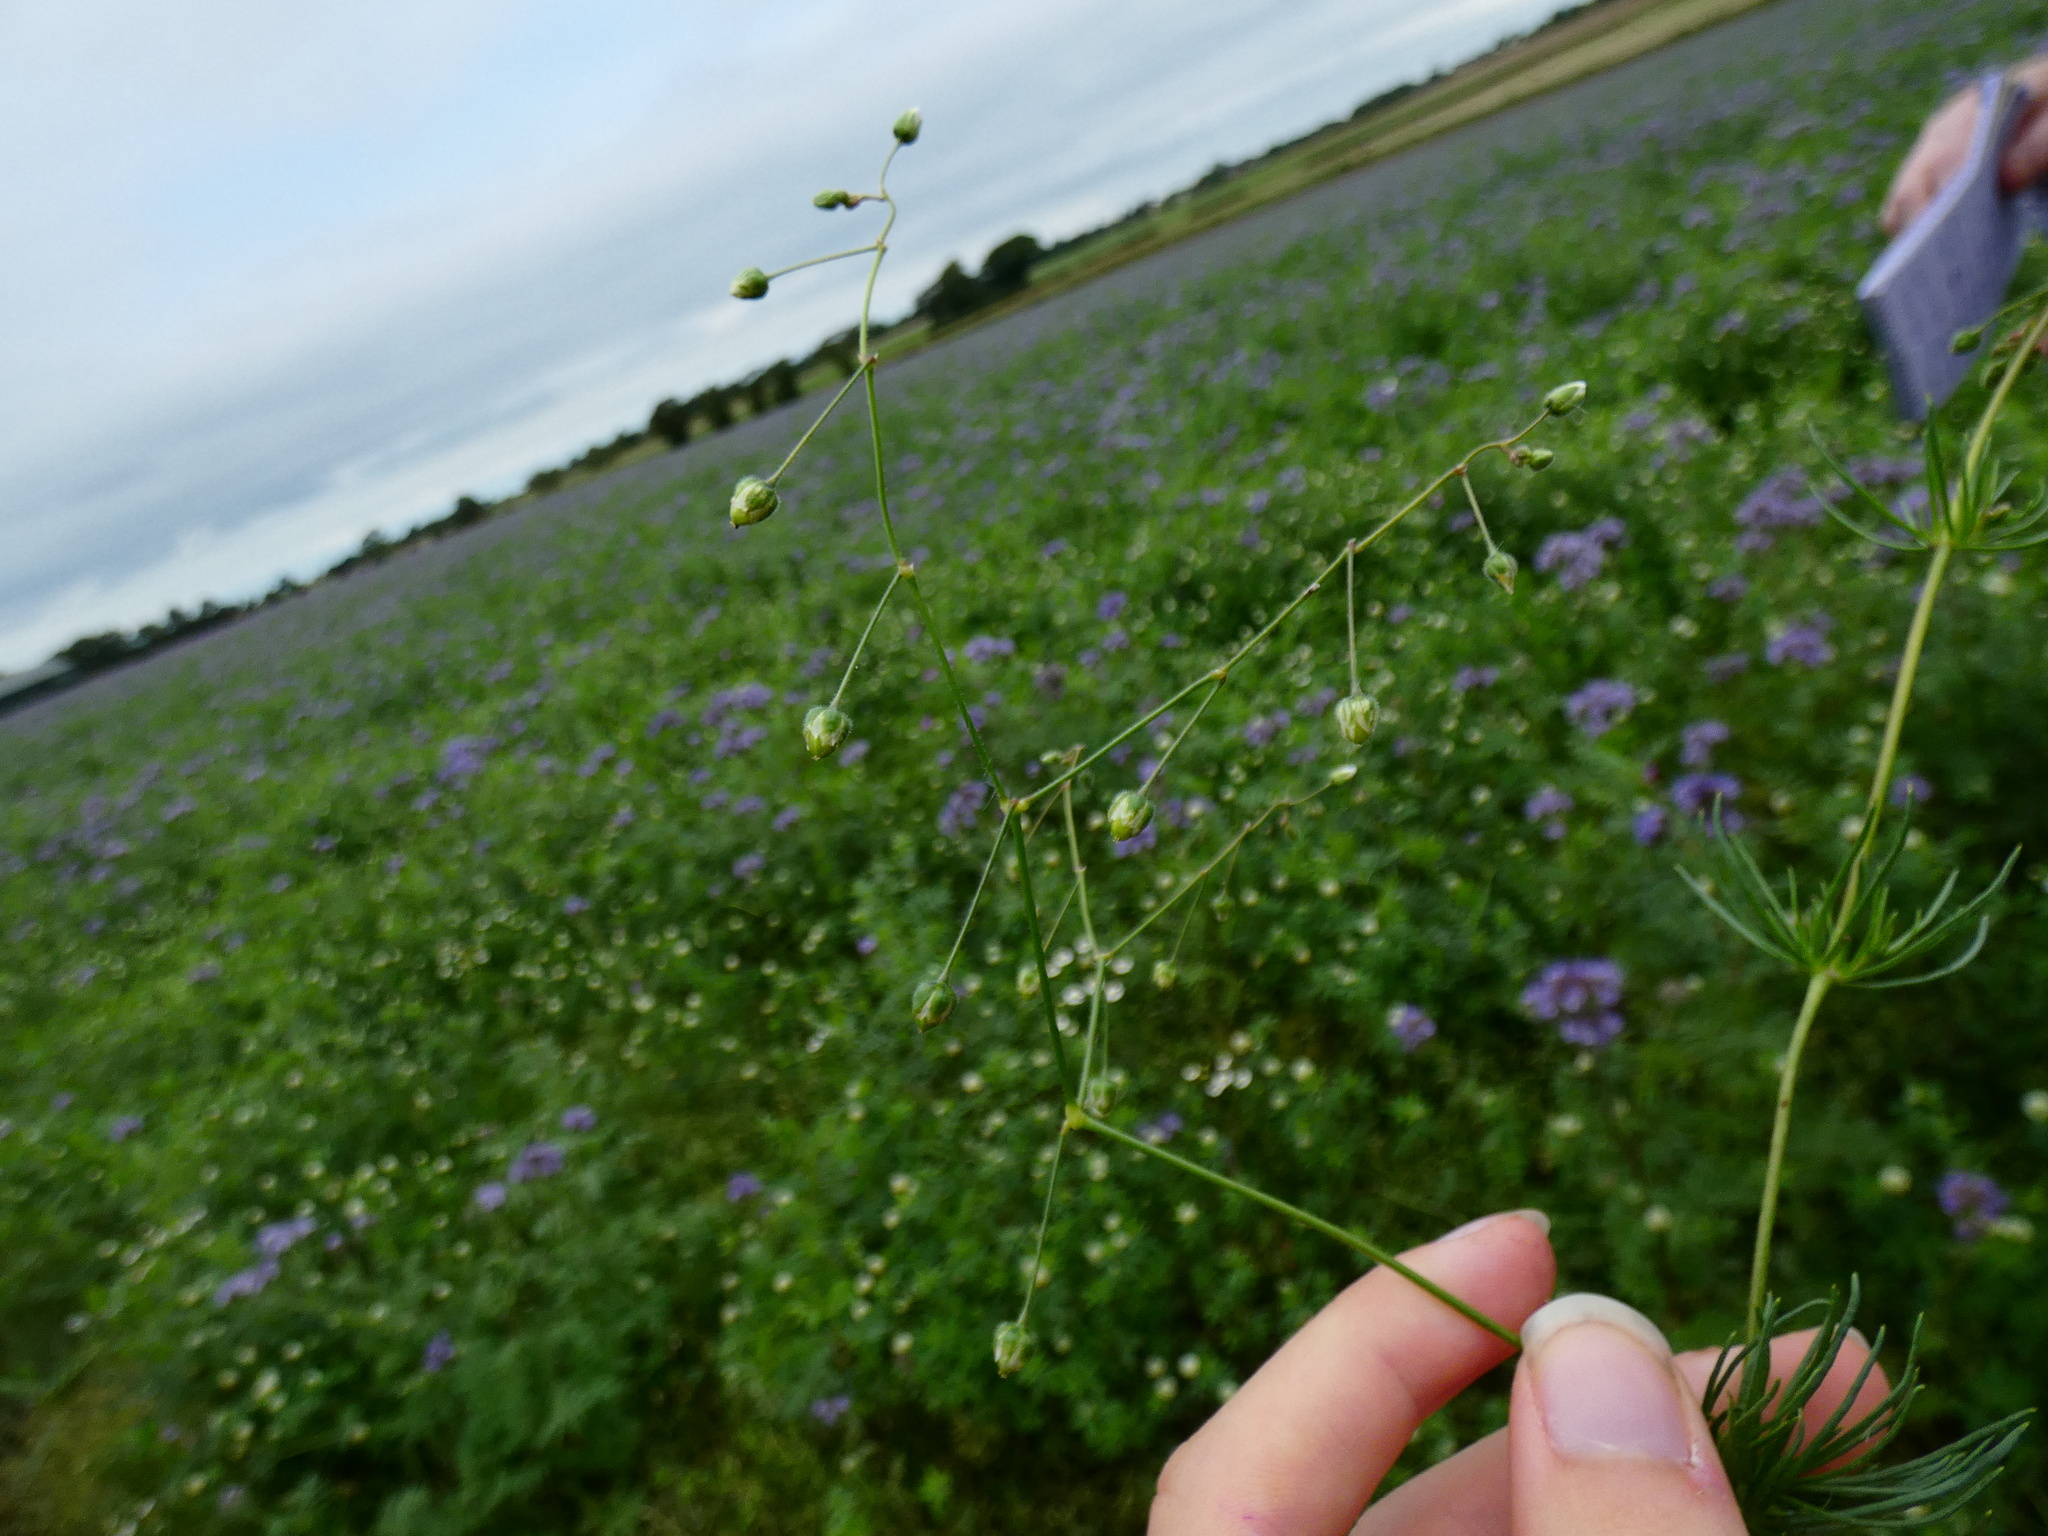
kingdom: Plantae
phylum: Tracheophyta
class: Magnoliopsida
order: Caryophyllales
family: Caryophyllaceae
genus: Spergula
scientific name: Spergula arvensis
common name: Corn spurrey
